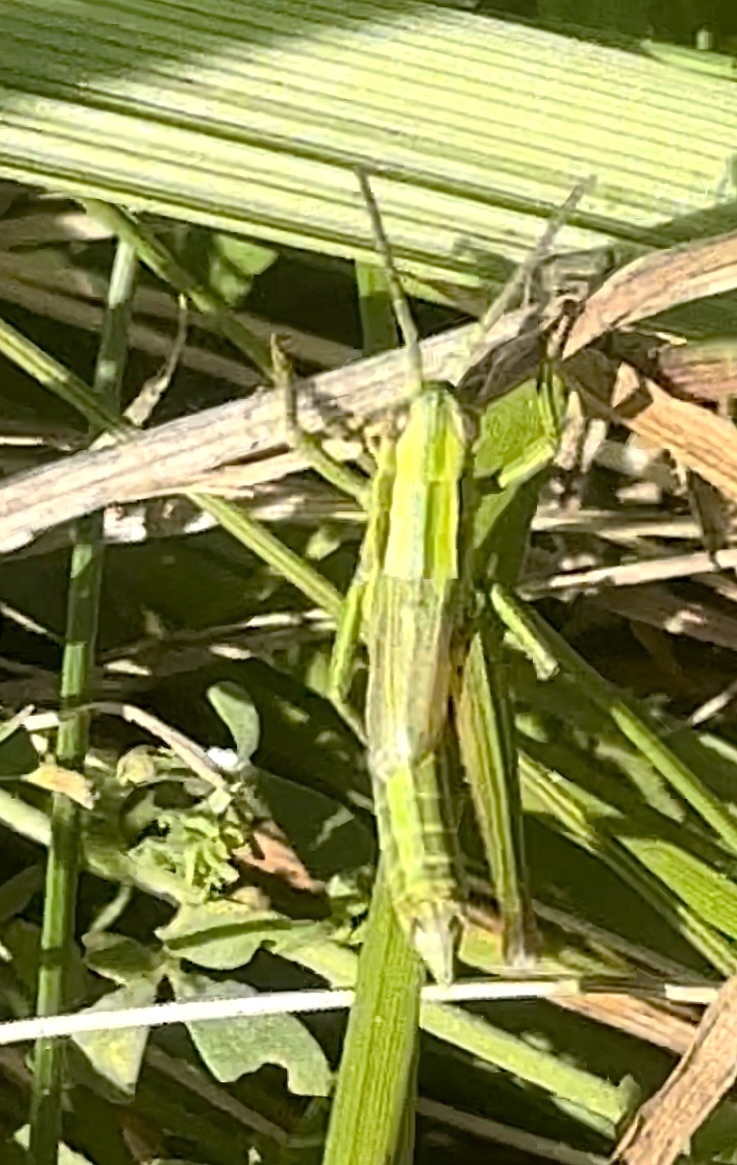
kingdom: Animalia
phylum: Arthropoda
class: Insecta
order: Orthoptera
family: Acrididae
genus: Euthystira
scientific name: Euthystira brachyptera
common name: Small gold grasshopper
